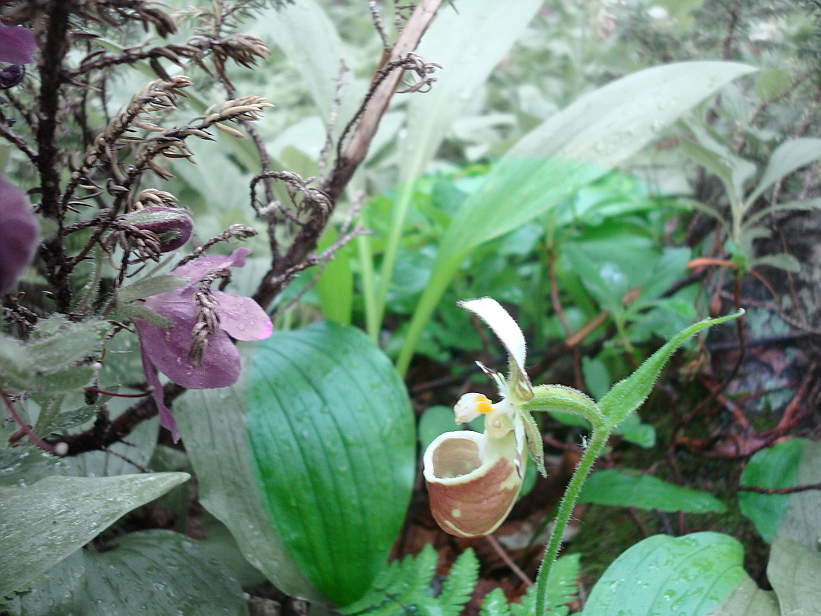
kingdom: Plantae
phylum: Tracheophyta
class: Liliopsida
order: Asparagales
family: Orchidaceae
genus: Cypripedium
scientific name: Cypripedium yatabeanum
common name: Spotted lady's slipper
